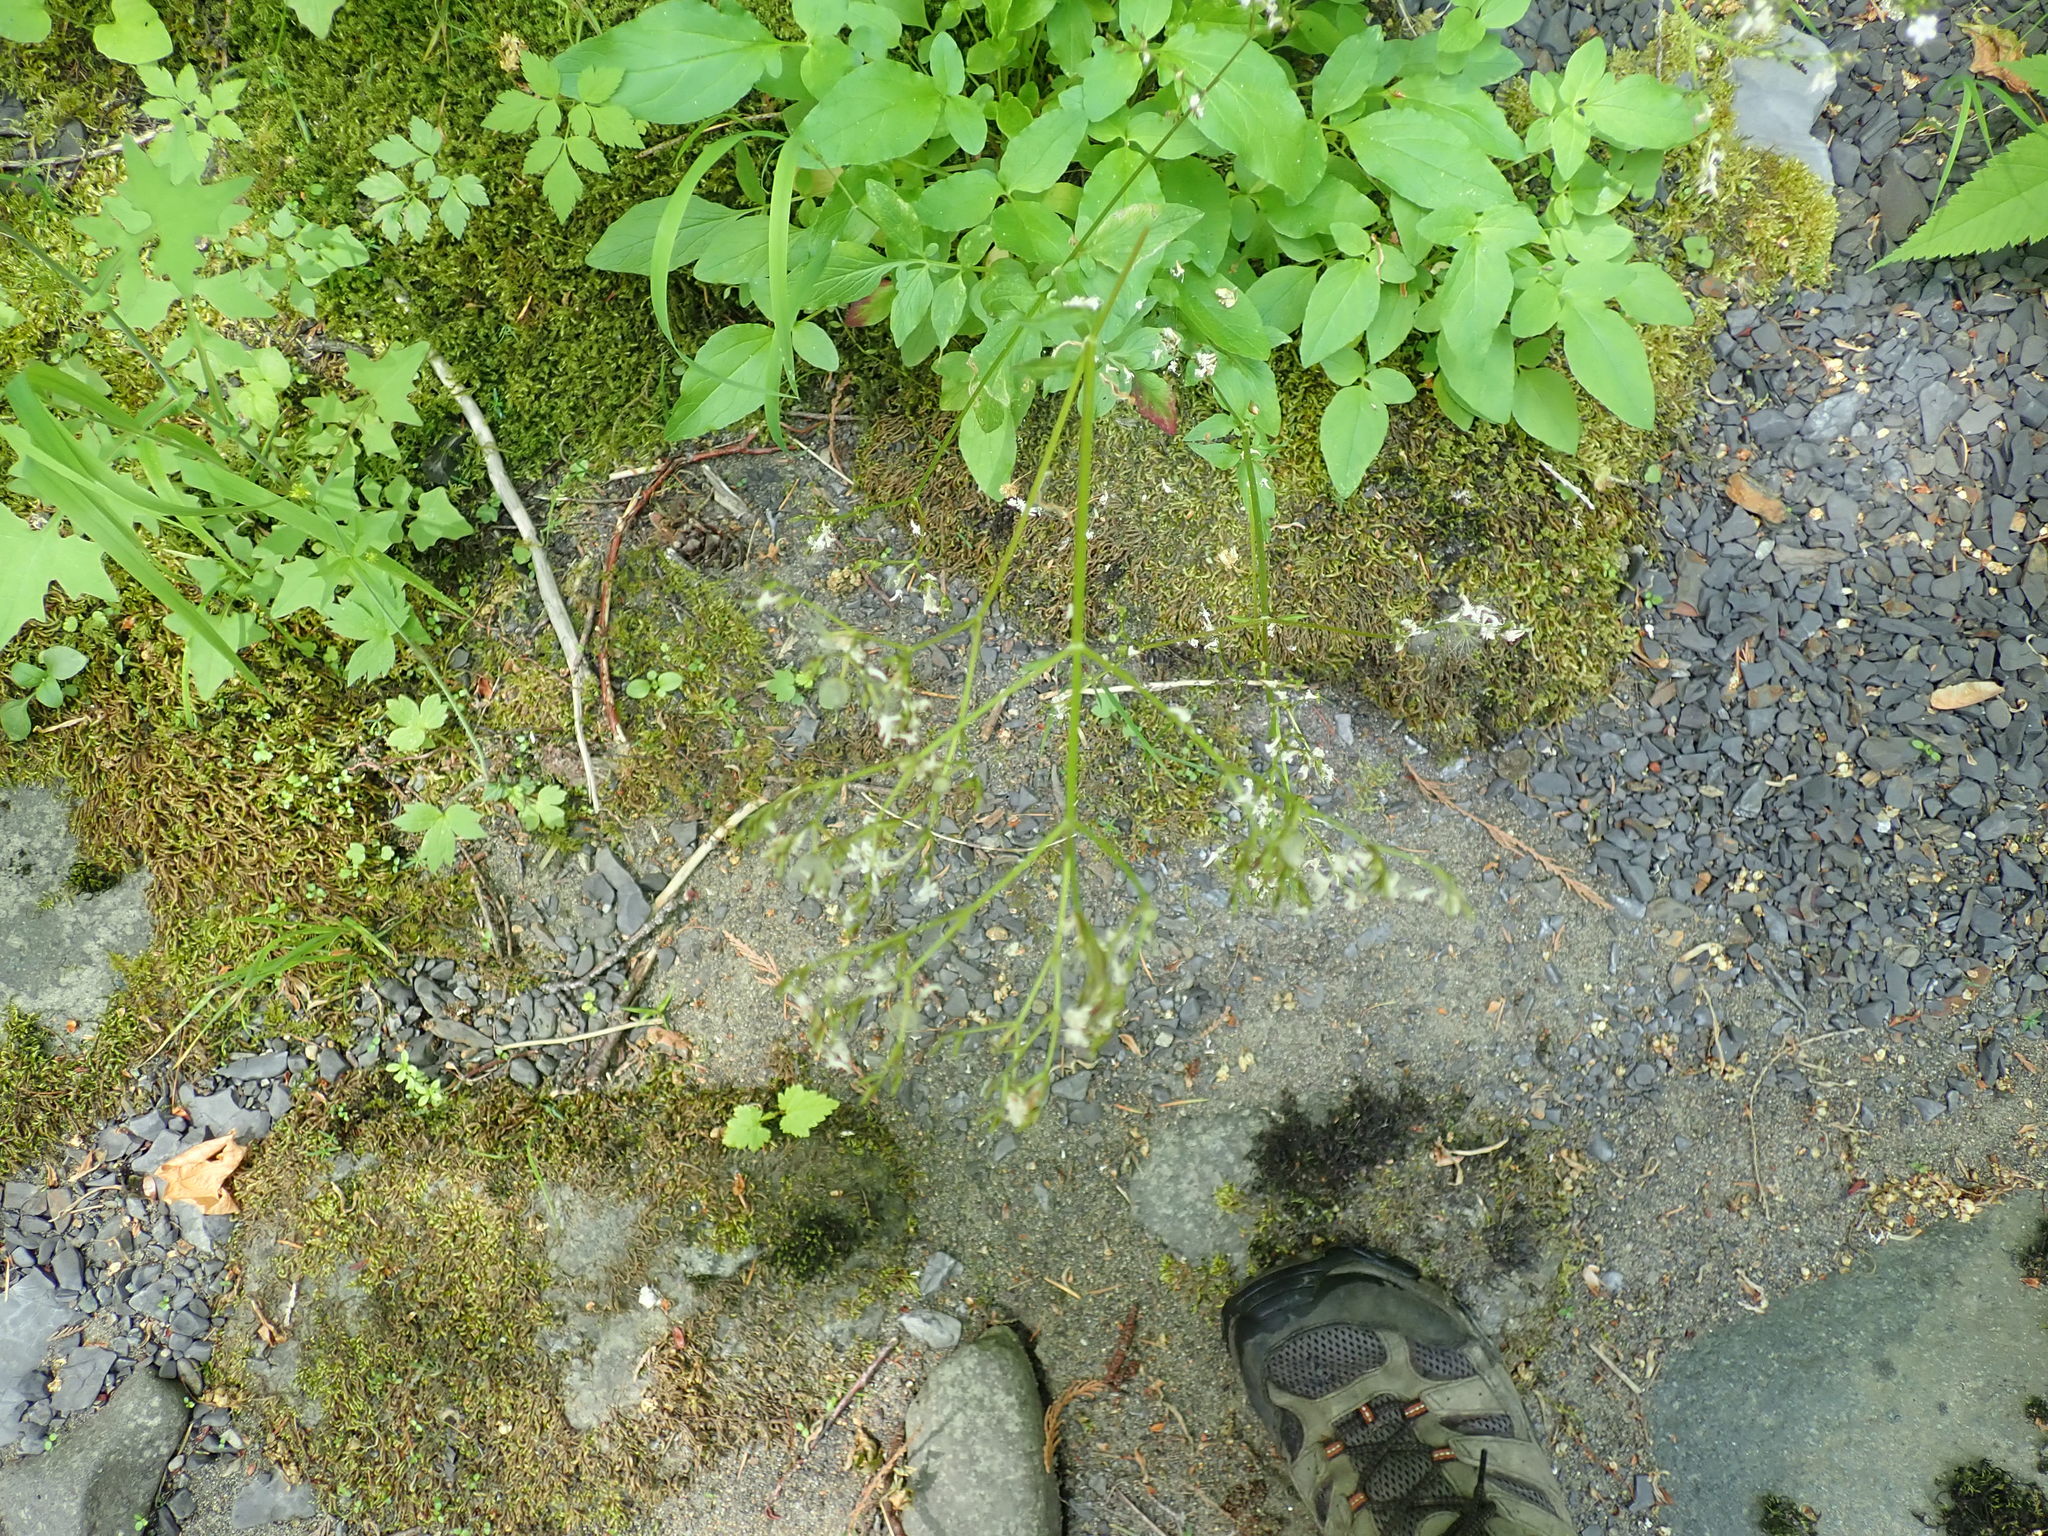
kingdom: Plantae
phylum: Tracheophyta
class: Magnoliopsida
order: Dipsacales
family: Caprifoliaceae
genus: Valeriana
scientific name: Valeriana scouleri
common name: Scouler's valerian
